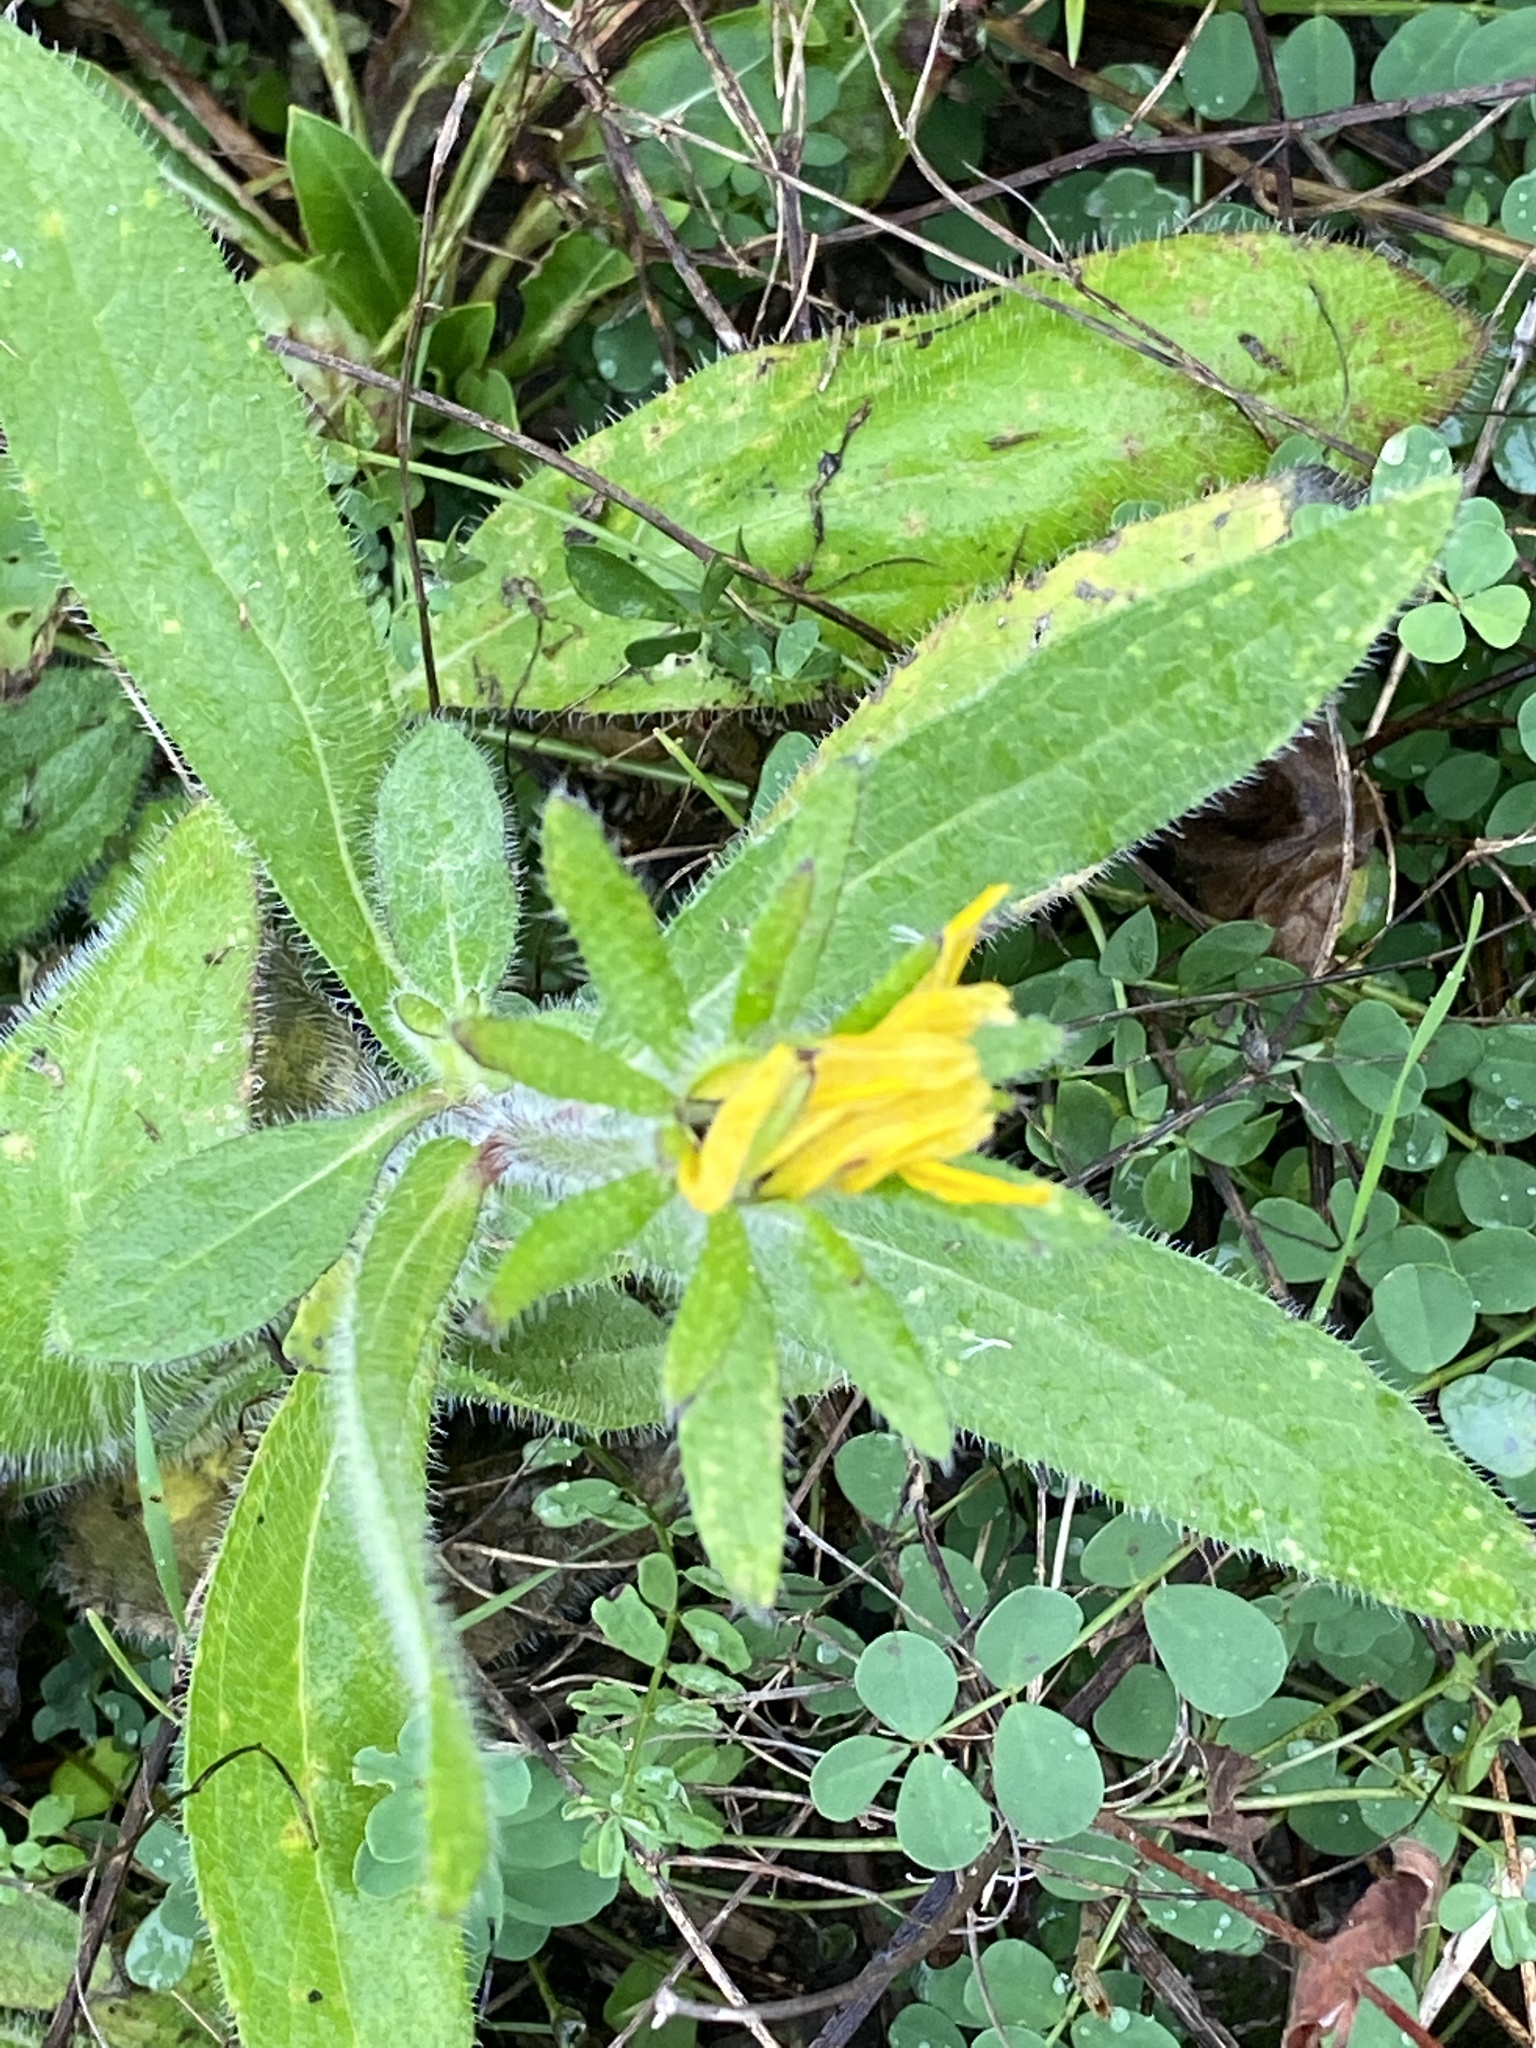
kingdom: Plantae
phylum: Tracheophyta
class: Magnoliopsida
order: Asterales
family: Asteraceae
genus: Rudbeckia
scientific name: Rudbeckia hirta
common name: Black-eyed-susan
